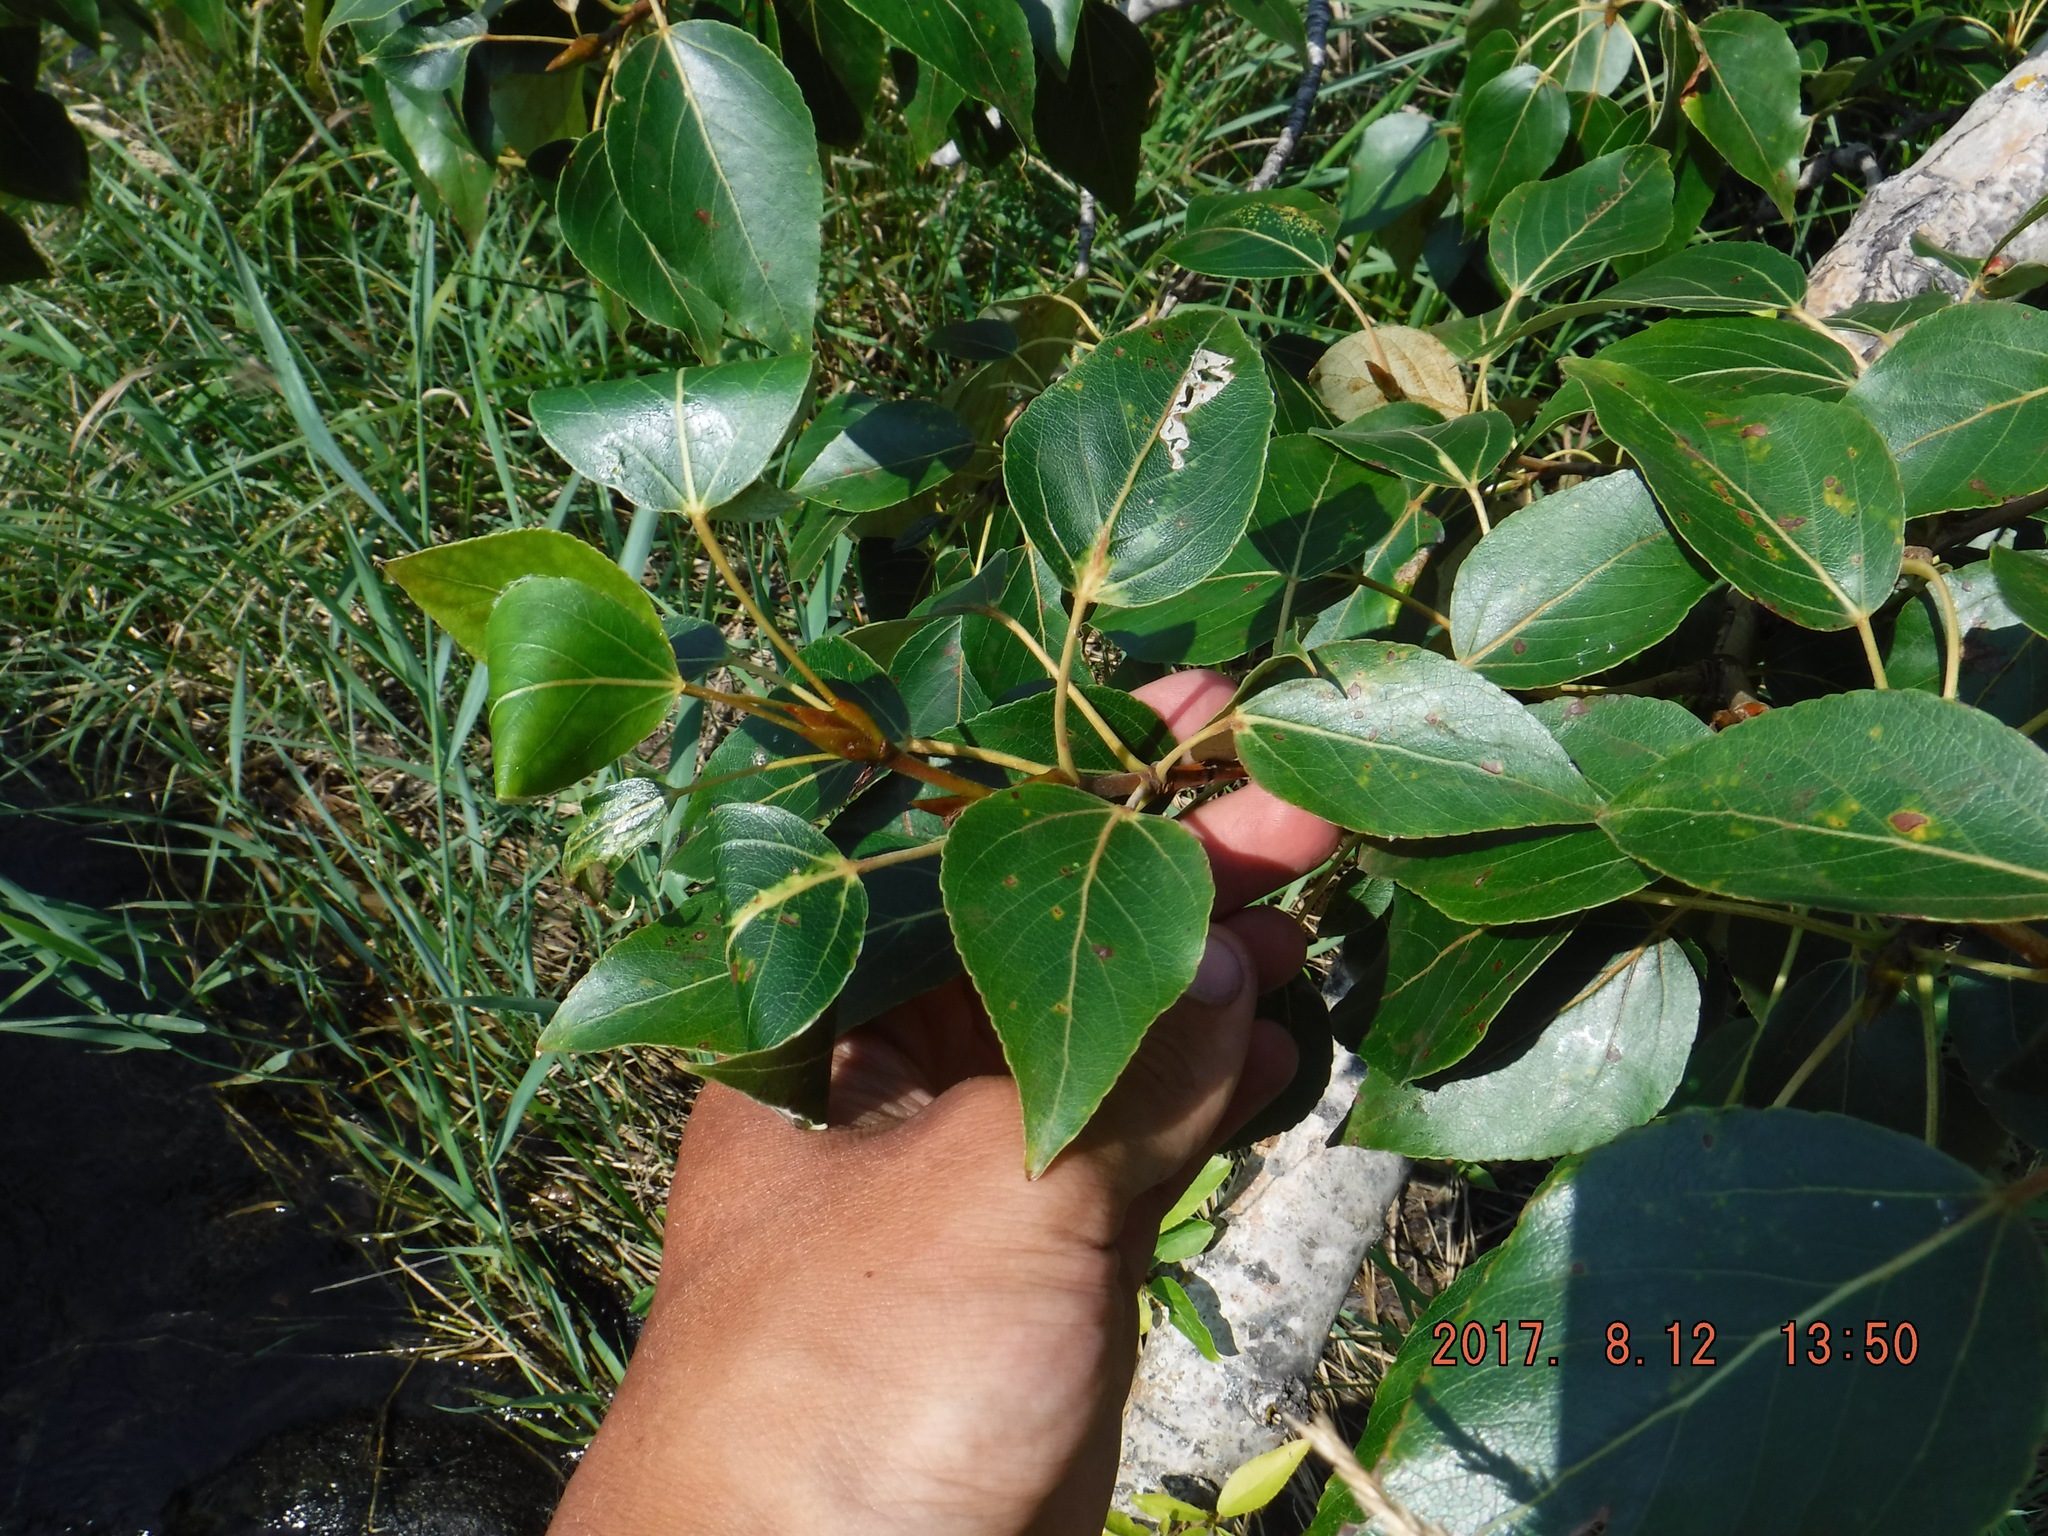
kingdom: Plantae
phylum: Tracheophyta
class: Magnoliopsida
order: Malpighiales
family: Salicaceae
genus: Populus
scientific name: Populus balsamifera
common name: Balsam poplar
